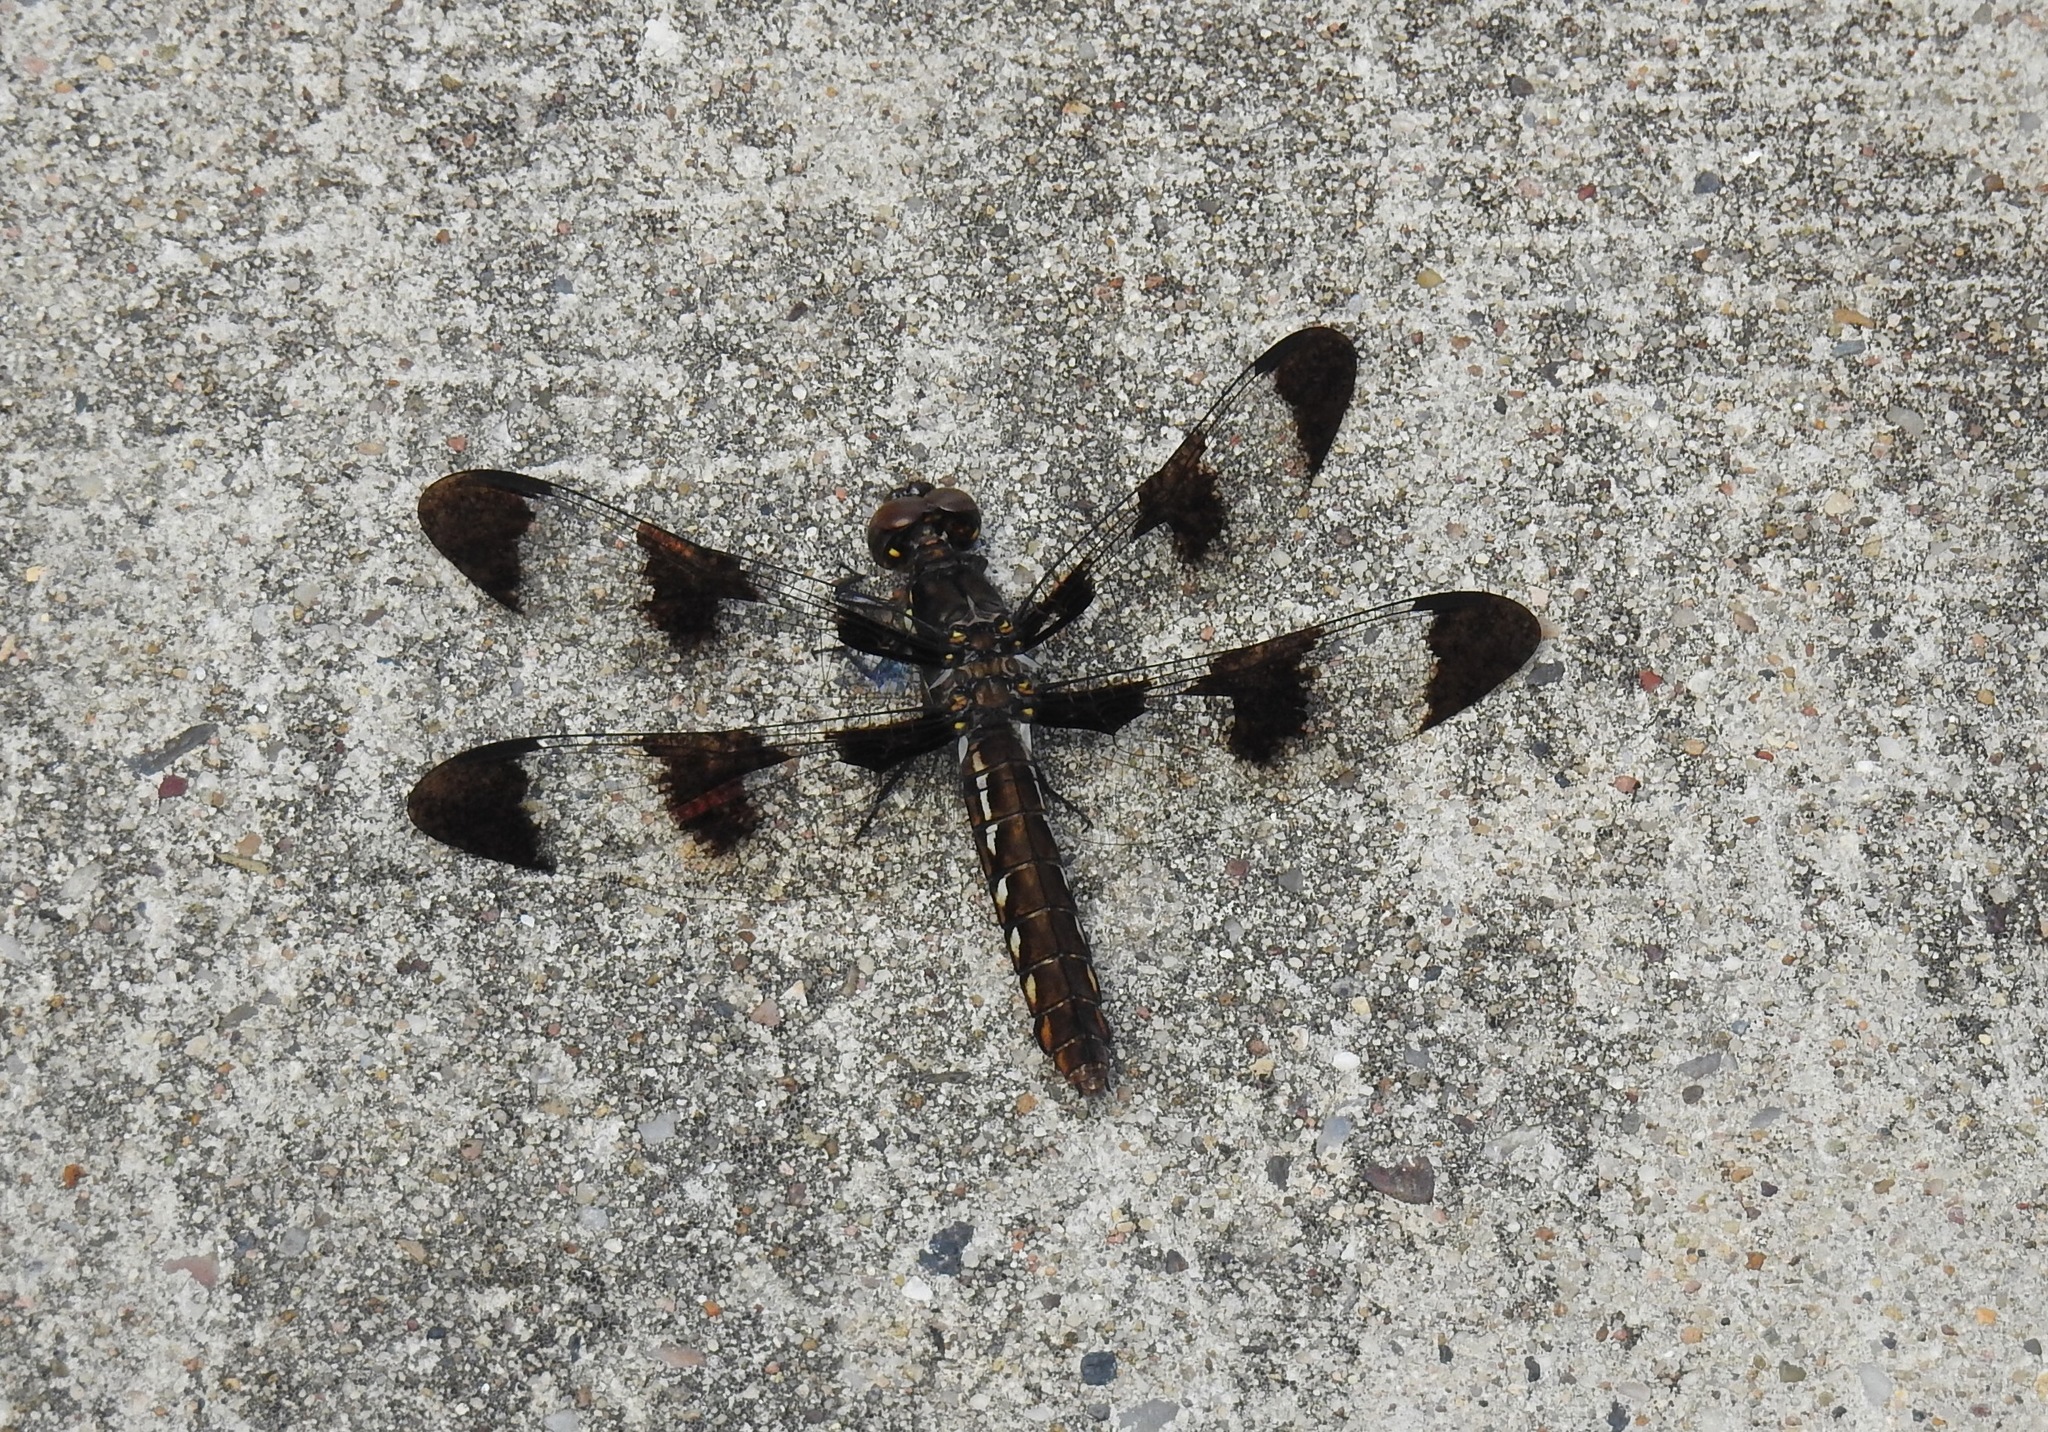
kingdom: Animalia
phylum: Arthropoda
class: Insecta
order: Odonata
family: Libellulidae
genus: Plathemis
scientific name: Plathemis lydia
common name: Common whitetail
